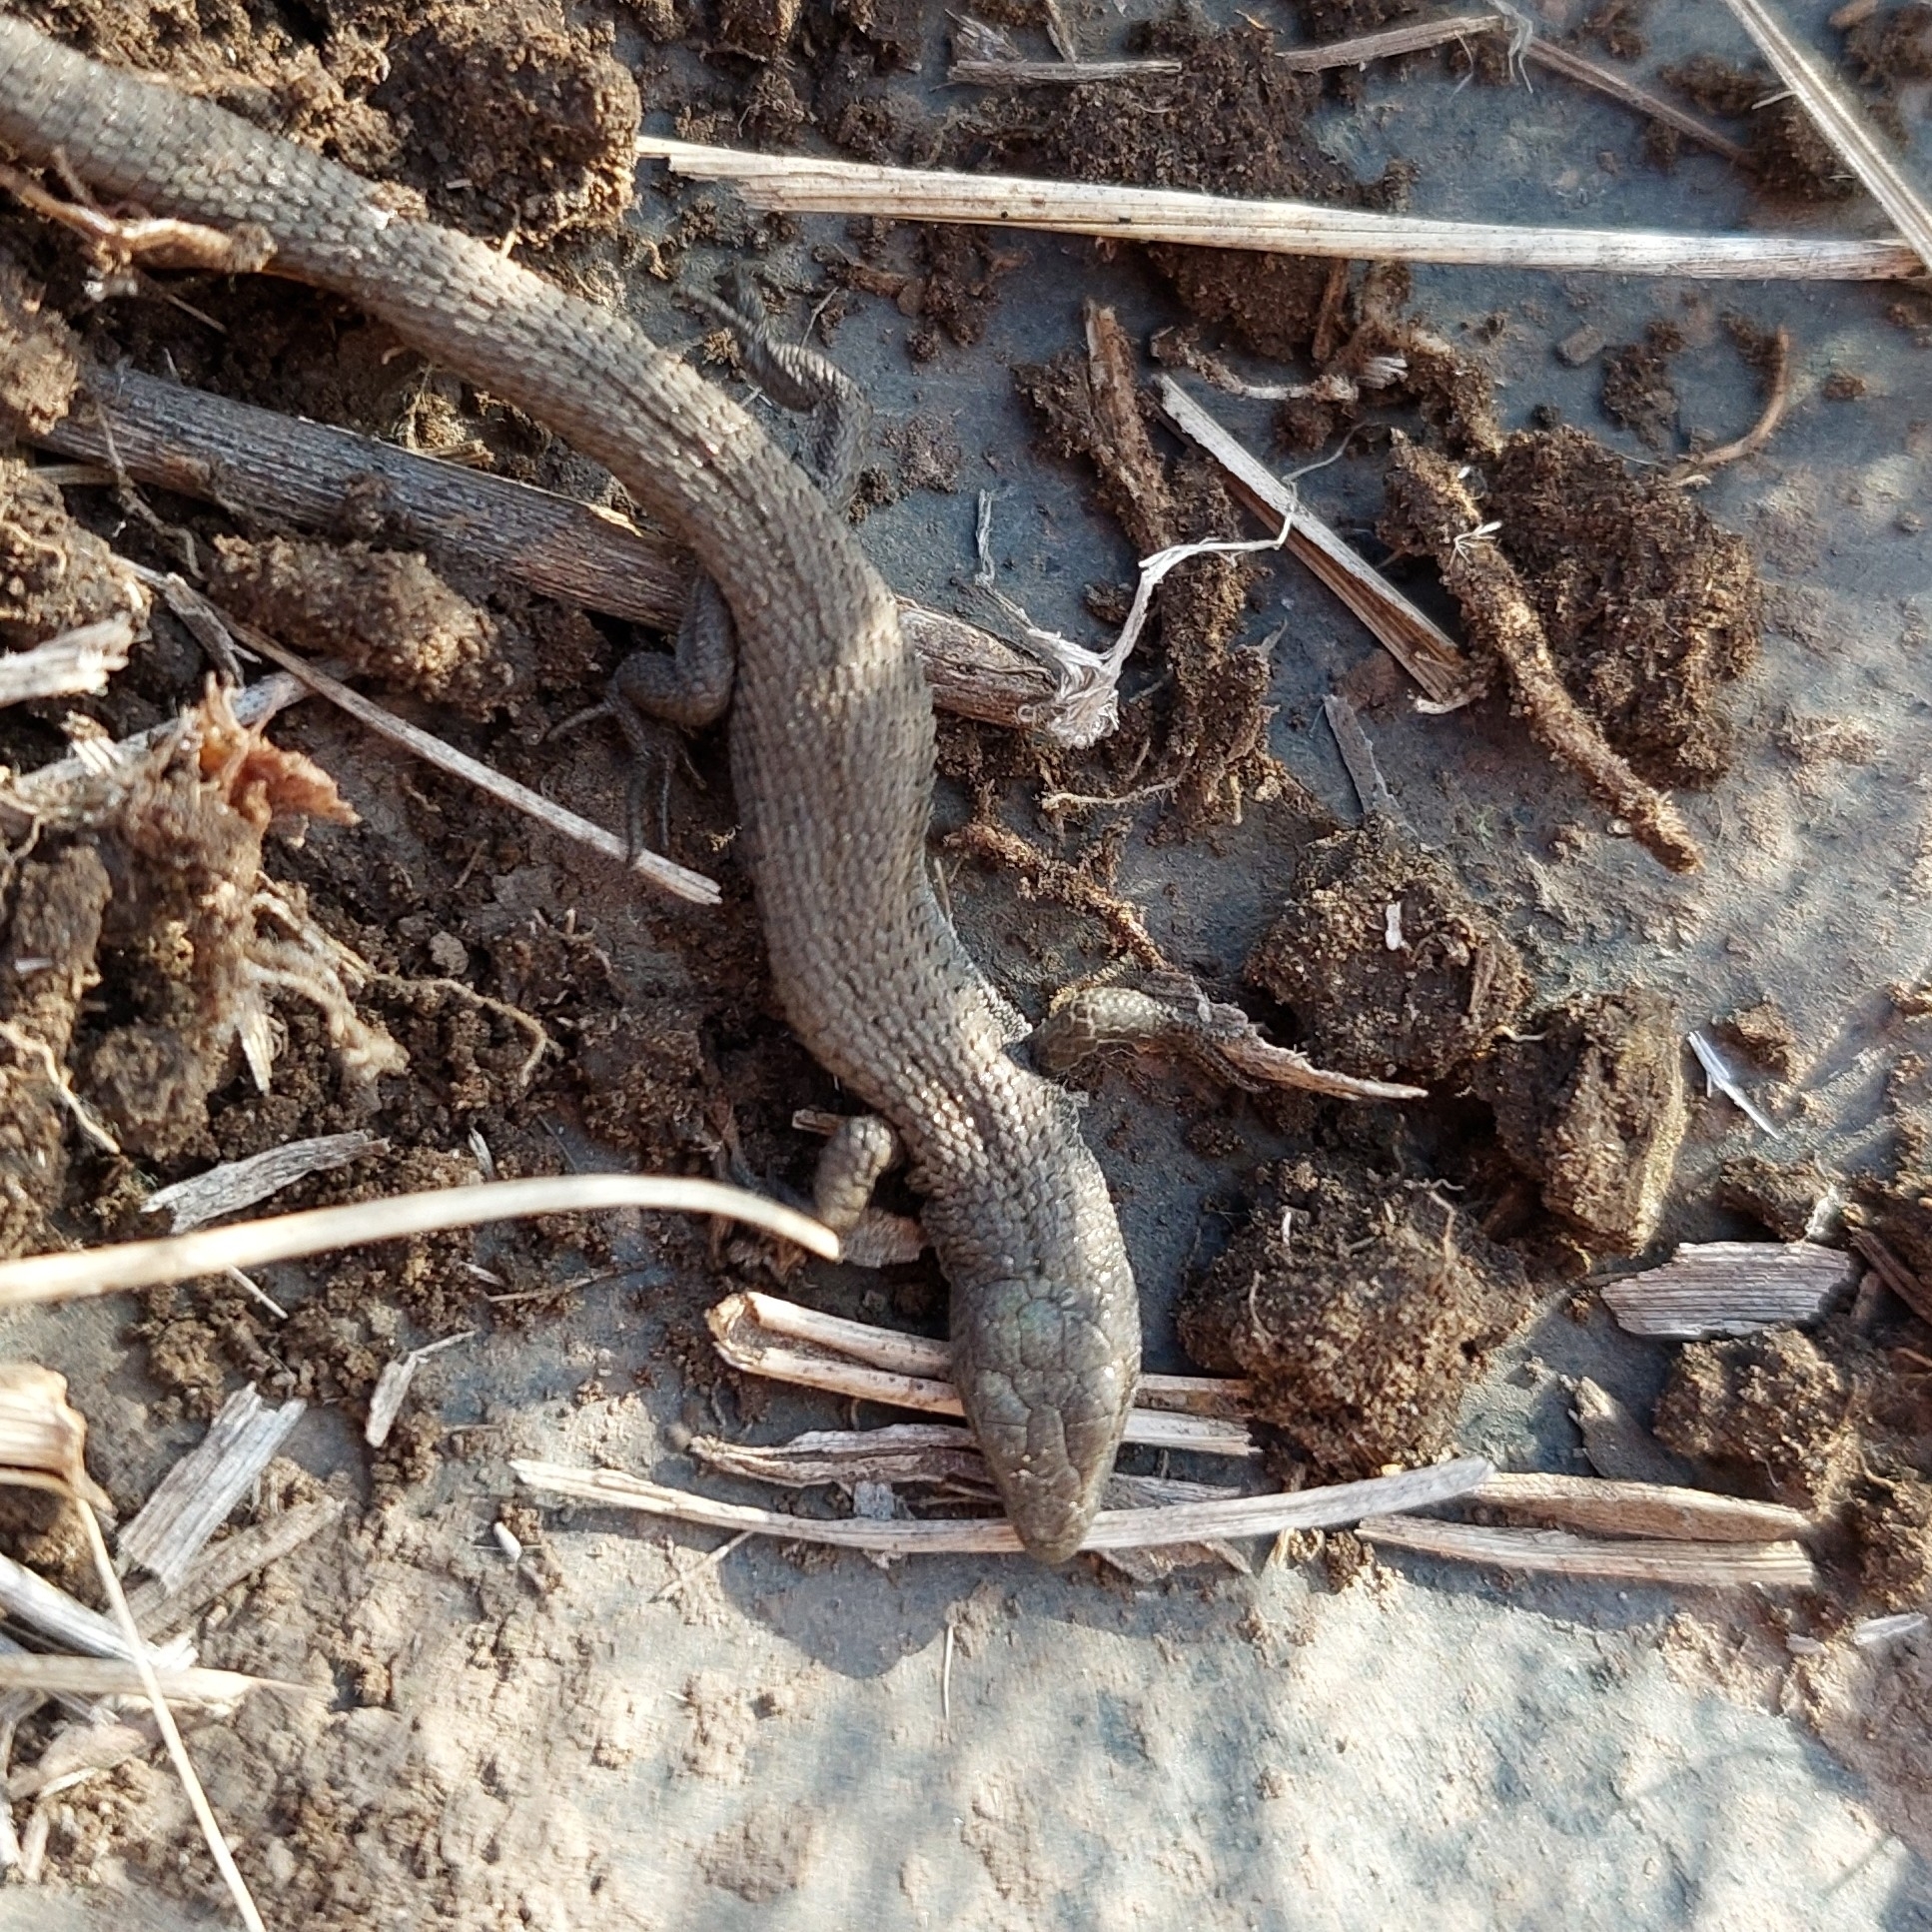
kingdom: Animalia
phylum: Chordata
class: Squamata
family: Gymnophthalmidae
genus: Cercosaura
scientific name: Cercosaura schreibersii
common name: Schreibers' many-fingered teiid
